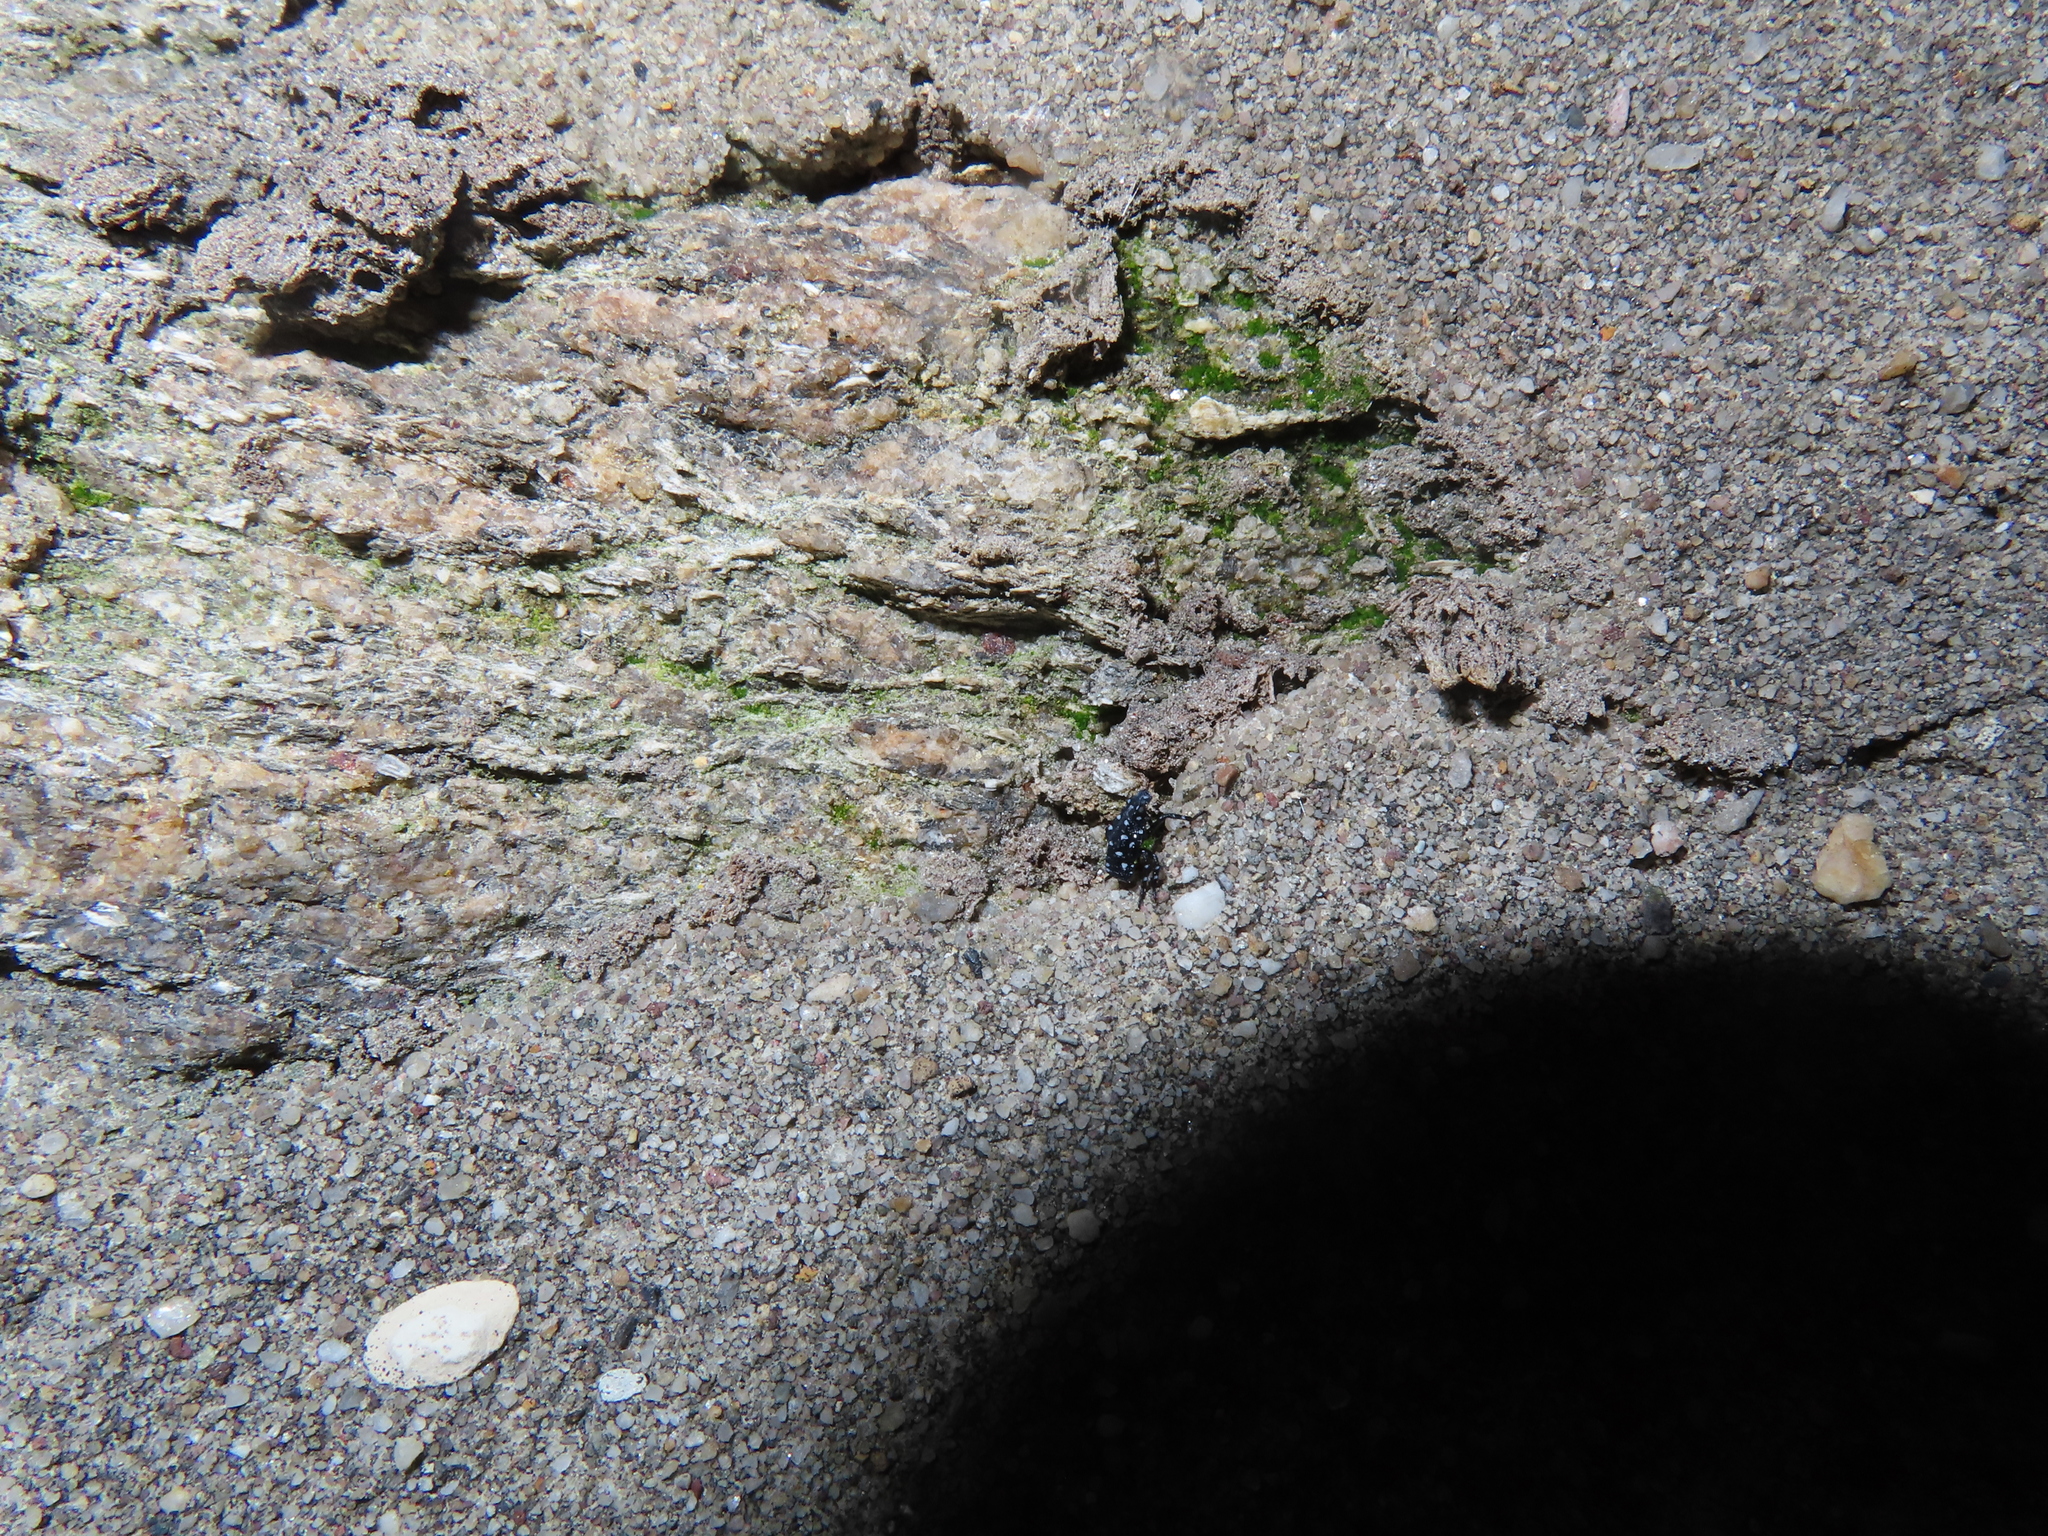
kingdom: Animalia
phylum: Arthropoda
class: Insecta
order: Hemiptera
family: Fulgoridae
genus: Lycorma
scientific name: Lycorma delicatula
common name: Spotted lanternfly
